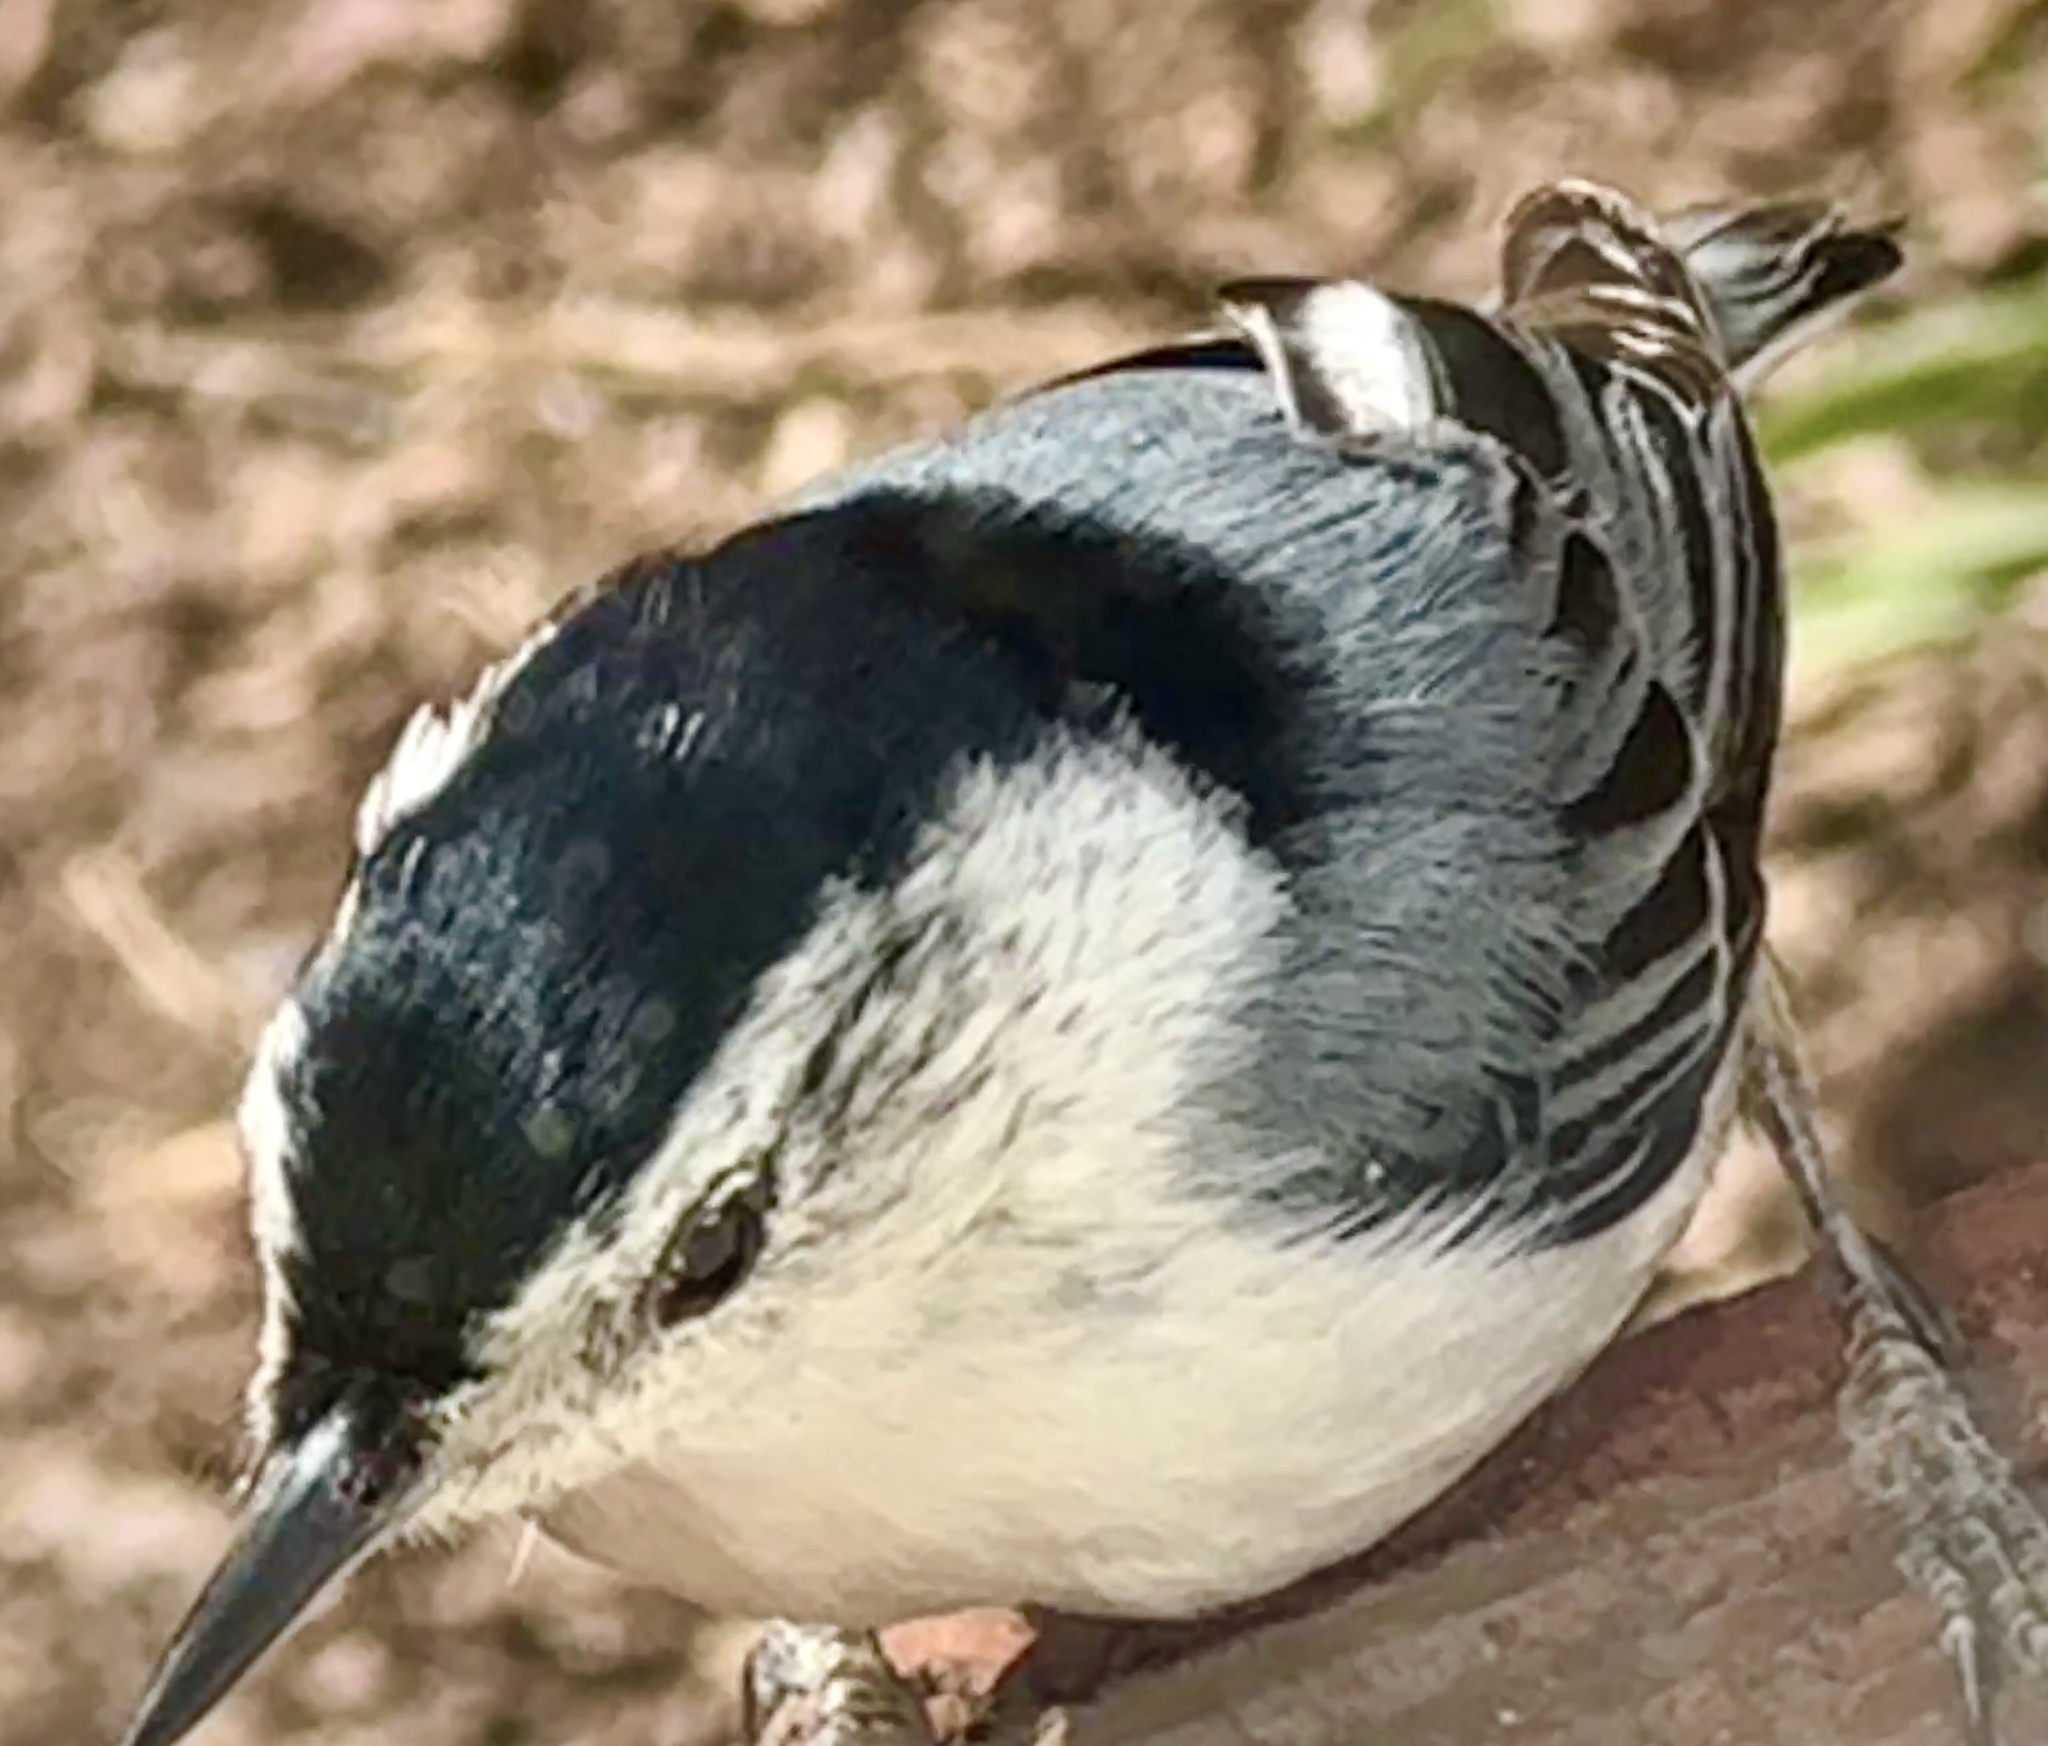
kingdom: Animalia
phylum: Chordata
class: Aves
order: Passeriformes
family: Sittidae
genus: Sitta
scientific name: Sitta carolinensis
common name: White-breasted nuthatch
